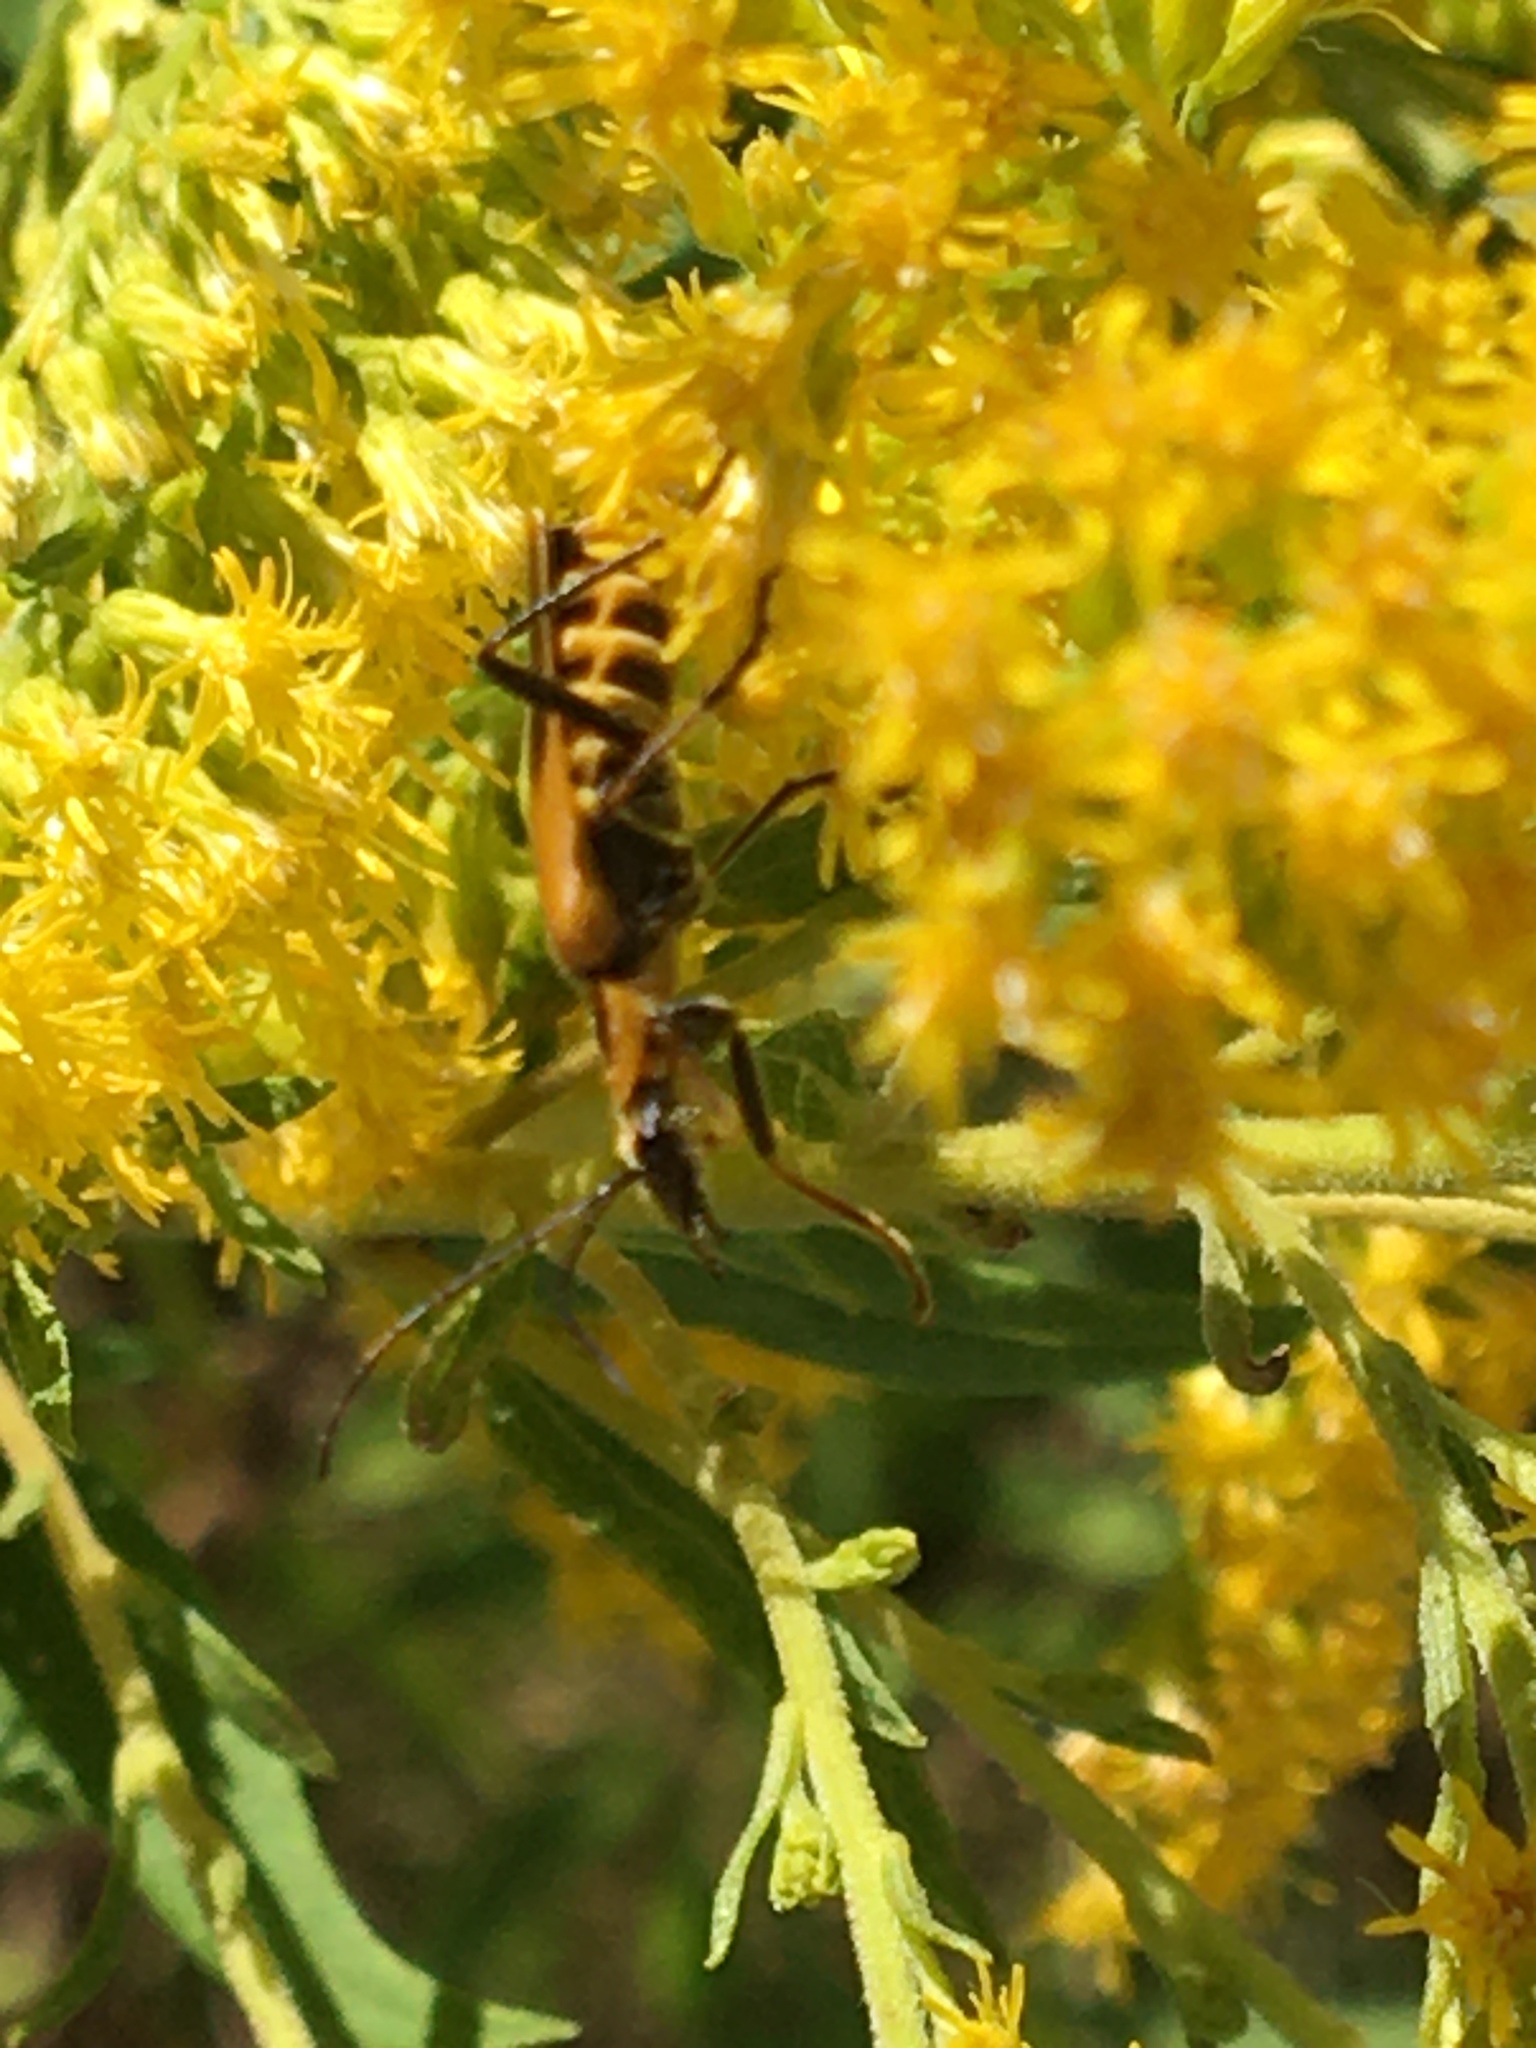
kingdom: Animalia
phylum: Arthropoda
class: Insecta
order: Coleoptera
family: Cantharidae
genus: Chauliognathus
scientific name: Chauliognathus pensylvanicus
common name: Goldenrod soldier beetle
